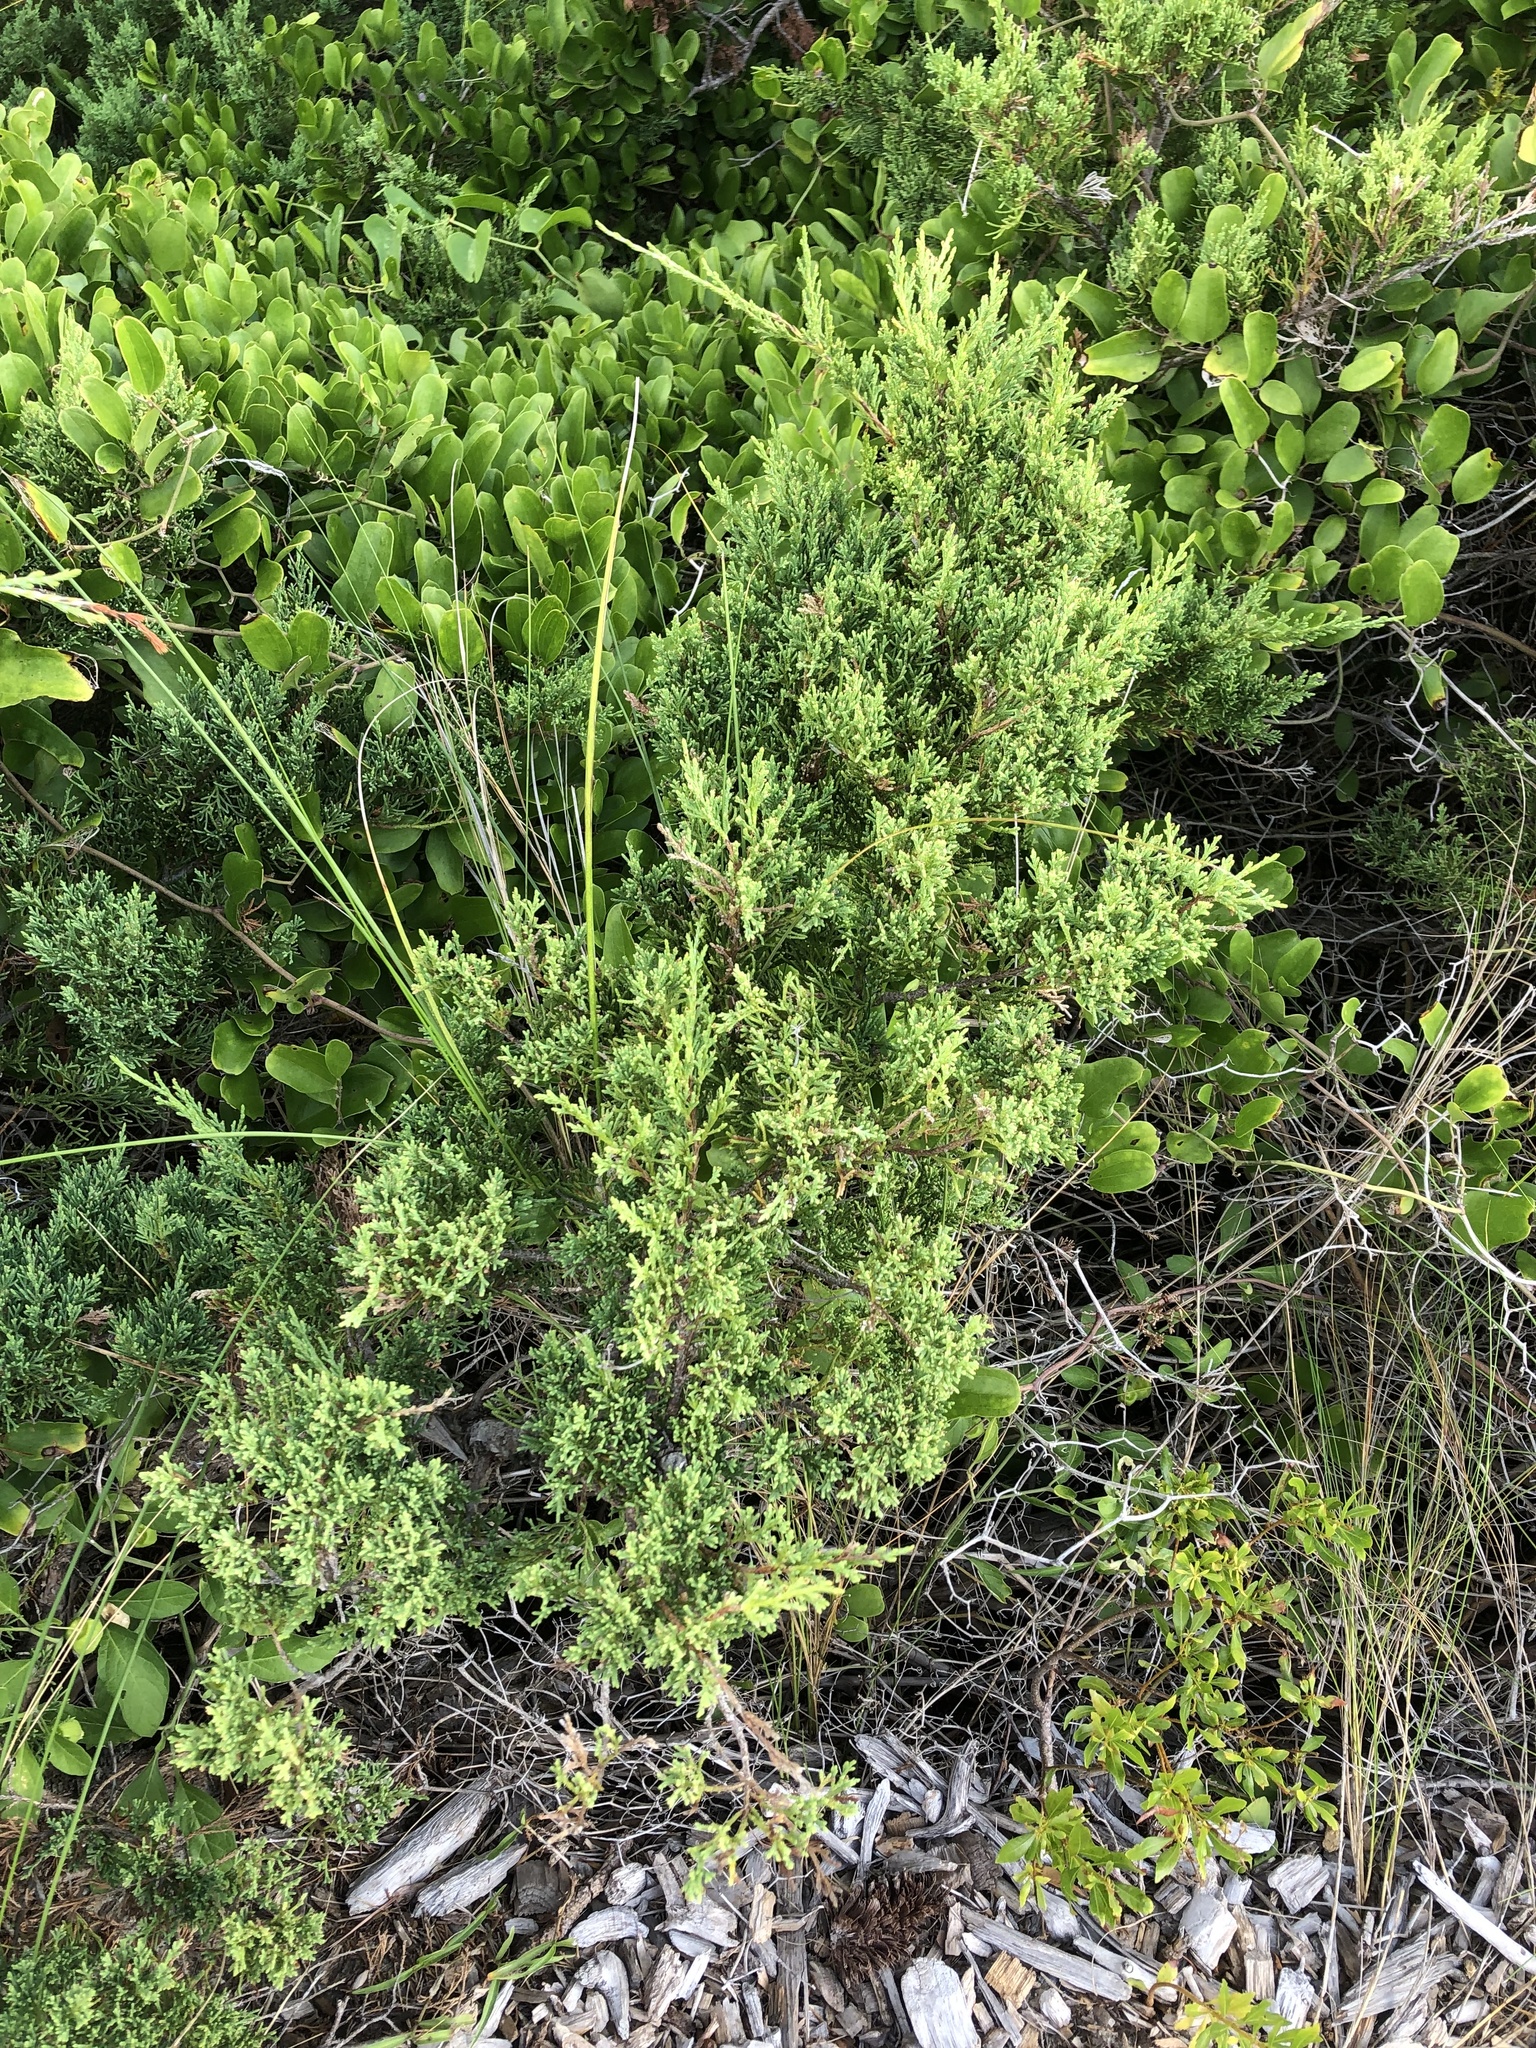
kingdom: Plantae
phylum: Tracheophyta
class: Pinopsida
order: Pinales
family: Cupressaceae
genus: Juniperus
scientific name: Juniperus virginiana
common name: Red juniper
